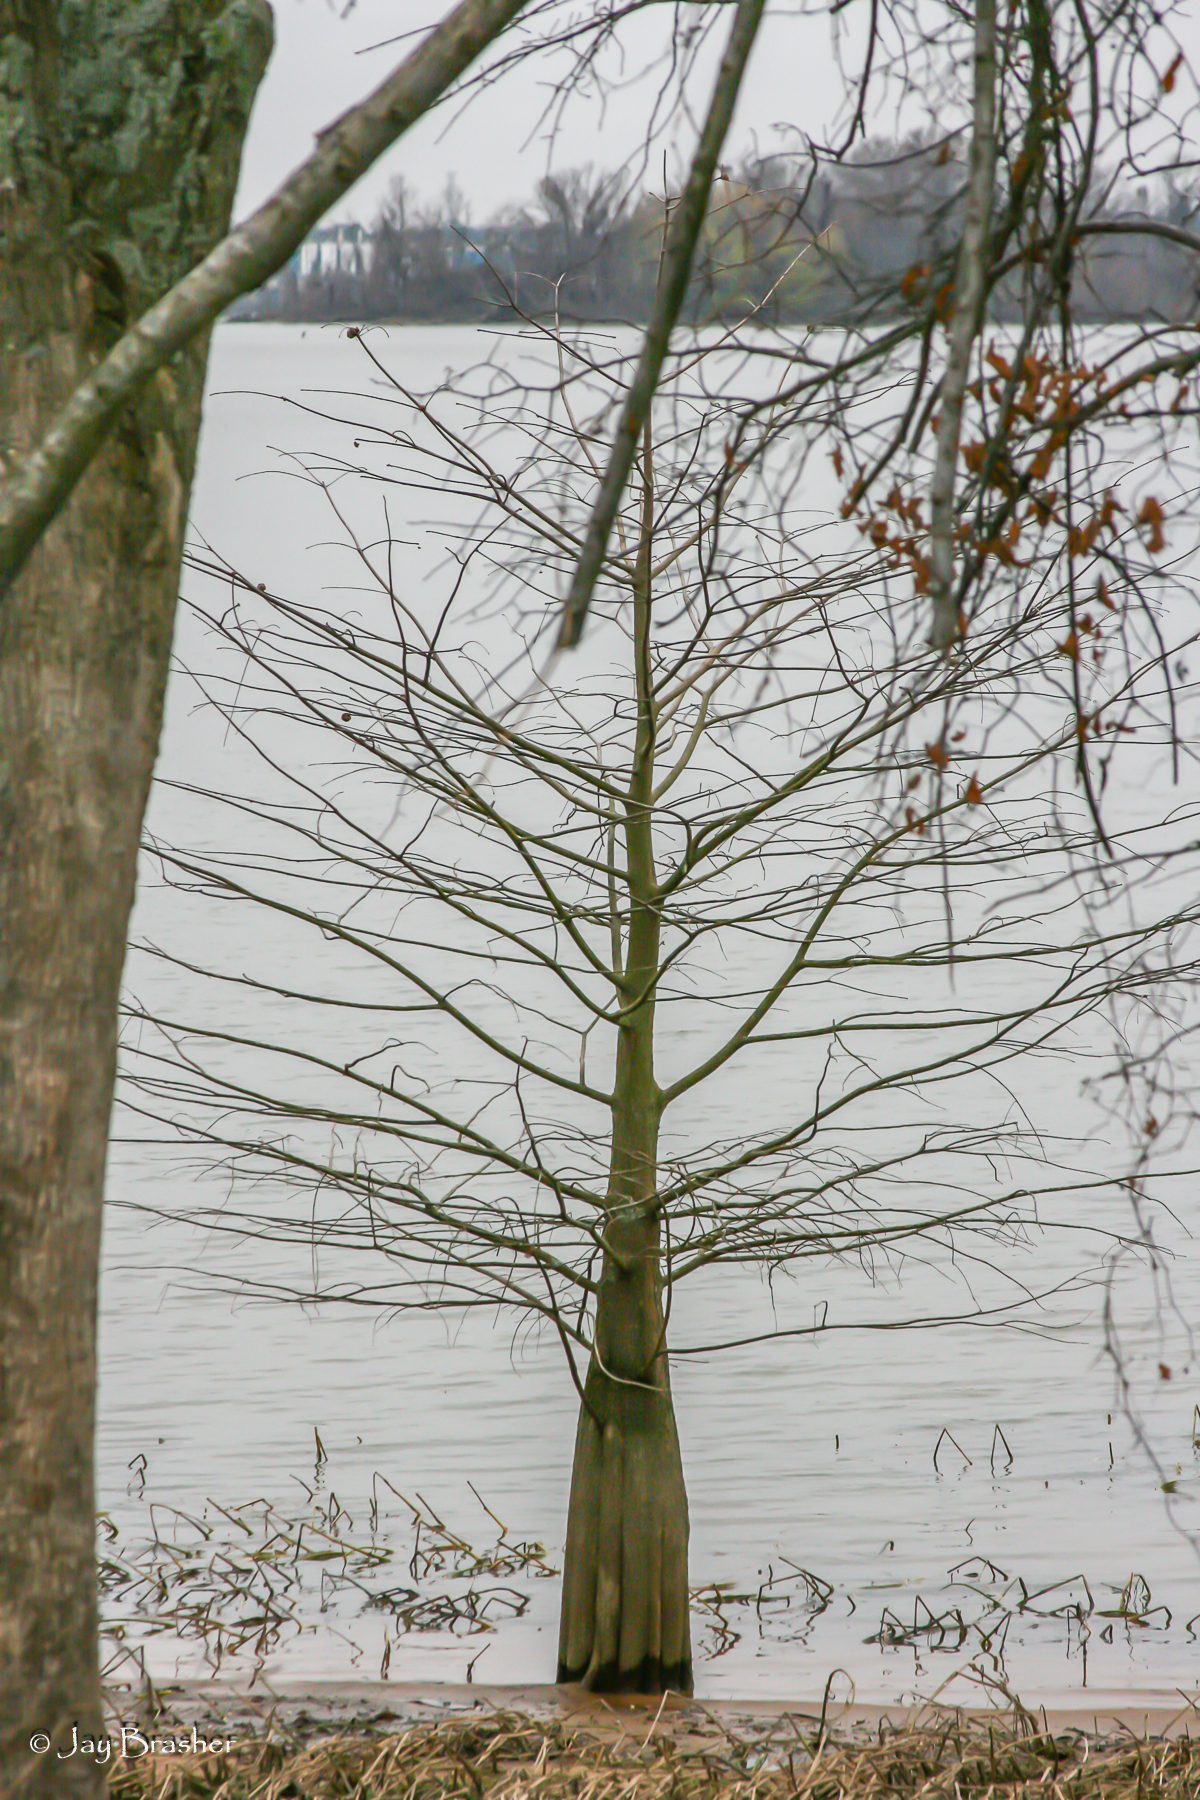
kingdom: Plantae
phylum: Tracheophyta
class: Pinopsida
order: Pinales
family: Cupressaceae
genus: Taxodium
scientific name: Taxodium distichum
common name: Bald cypress
